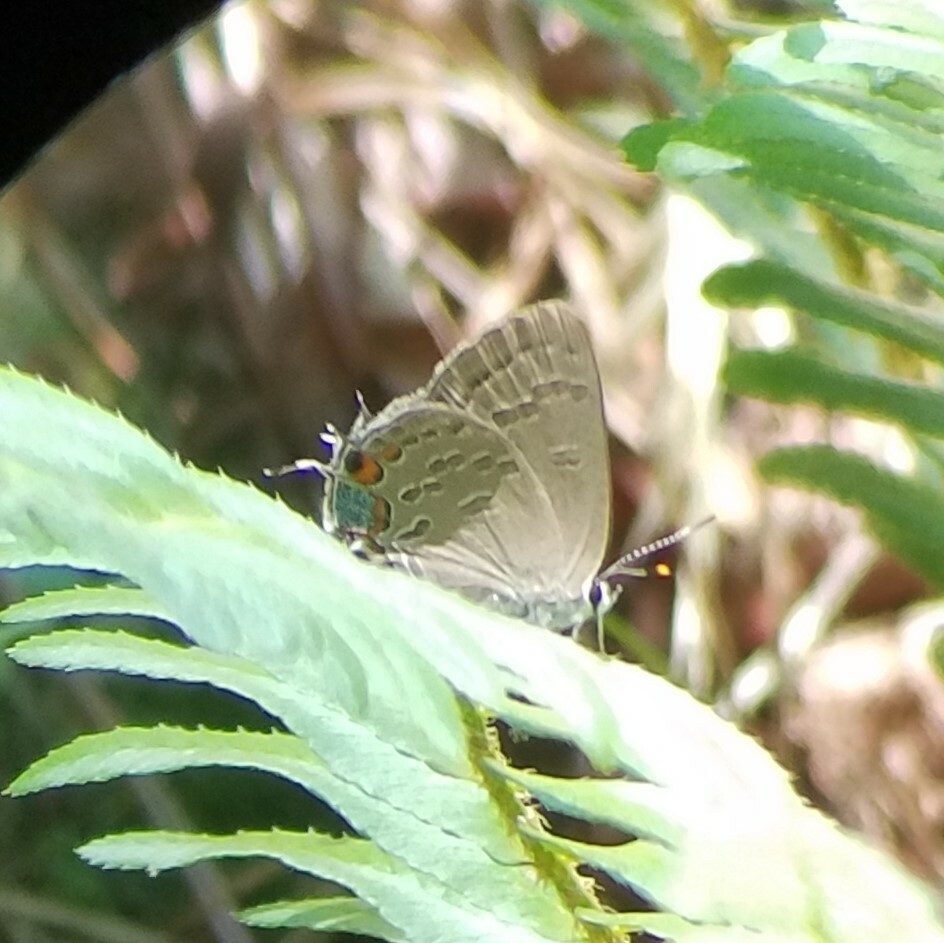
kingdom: Animalia
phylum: Arthropoda
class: Insecta
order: Lepidoptera
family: Lycaenidae
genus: Strymon
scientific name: Strymon kingi
